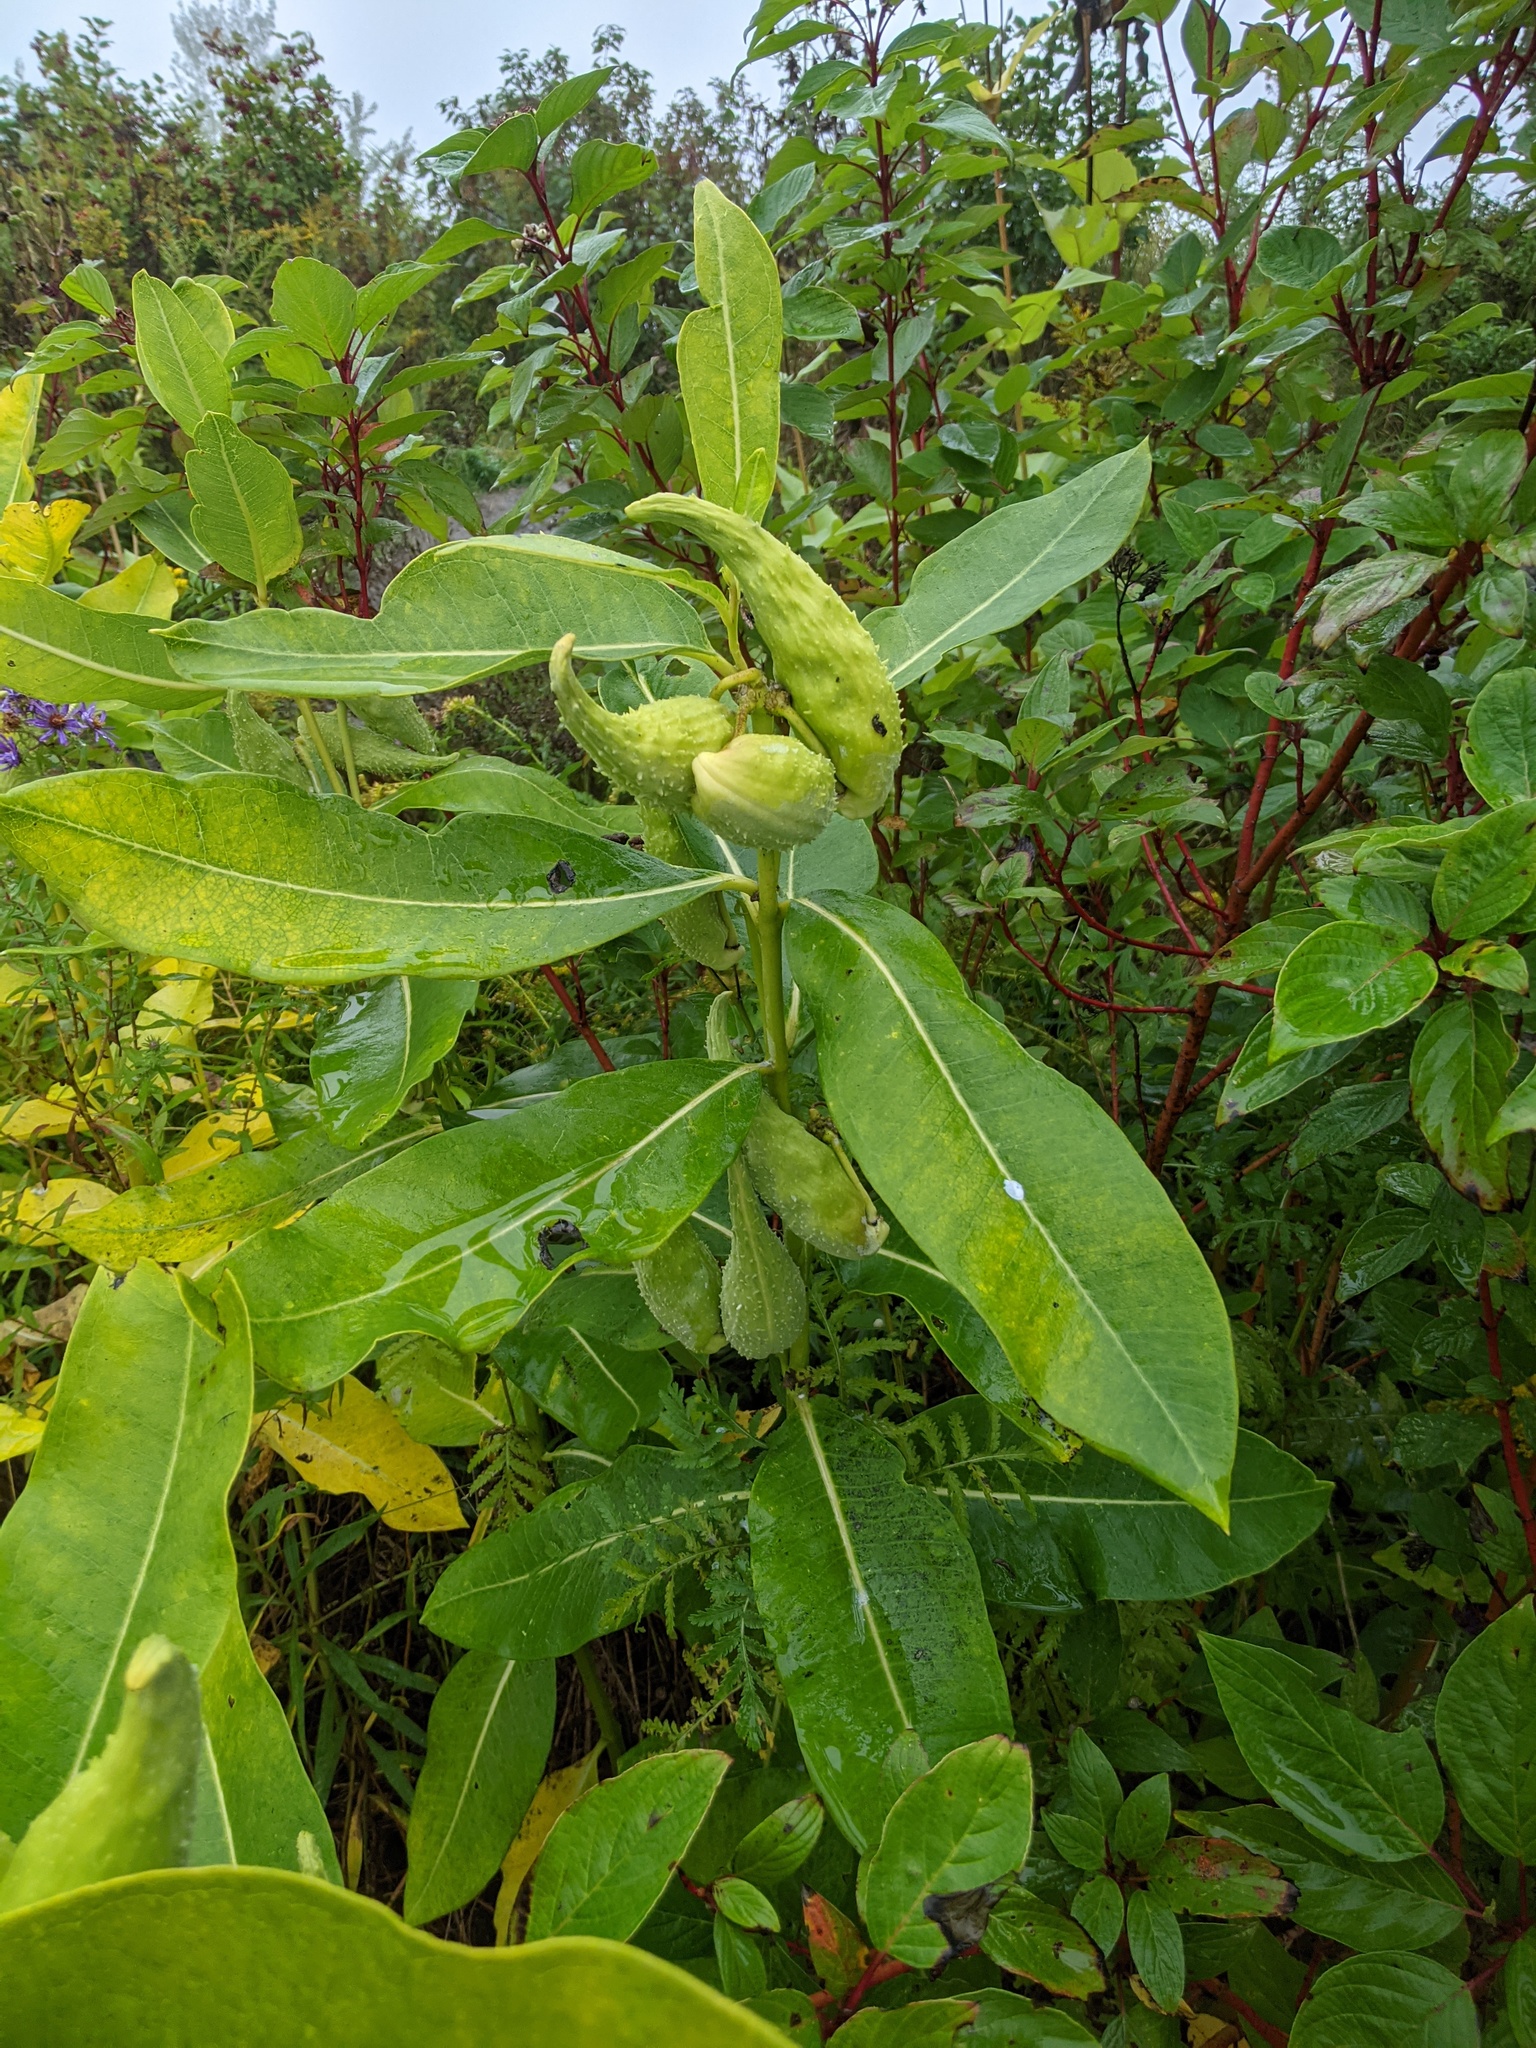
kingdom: Plantae
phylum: Tracheophyta
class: Magnoliopsida
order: Gentianales
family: Apocynaceae
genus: Asclepias
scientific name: Asclepias syriaca
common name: Common milkweed
